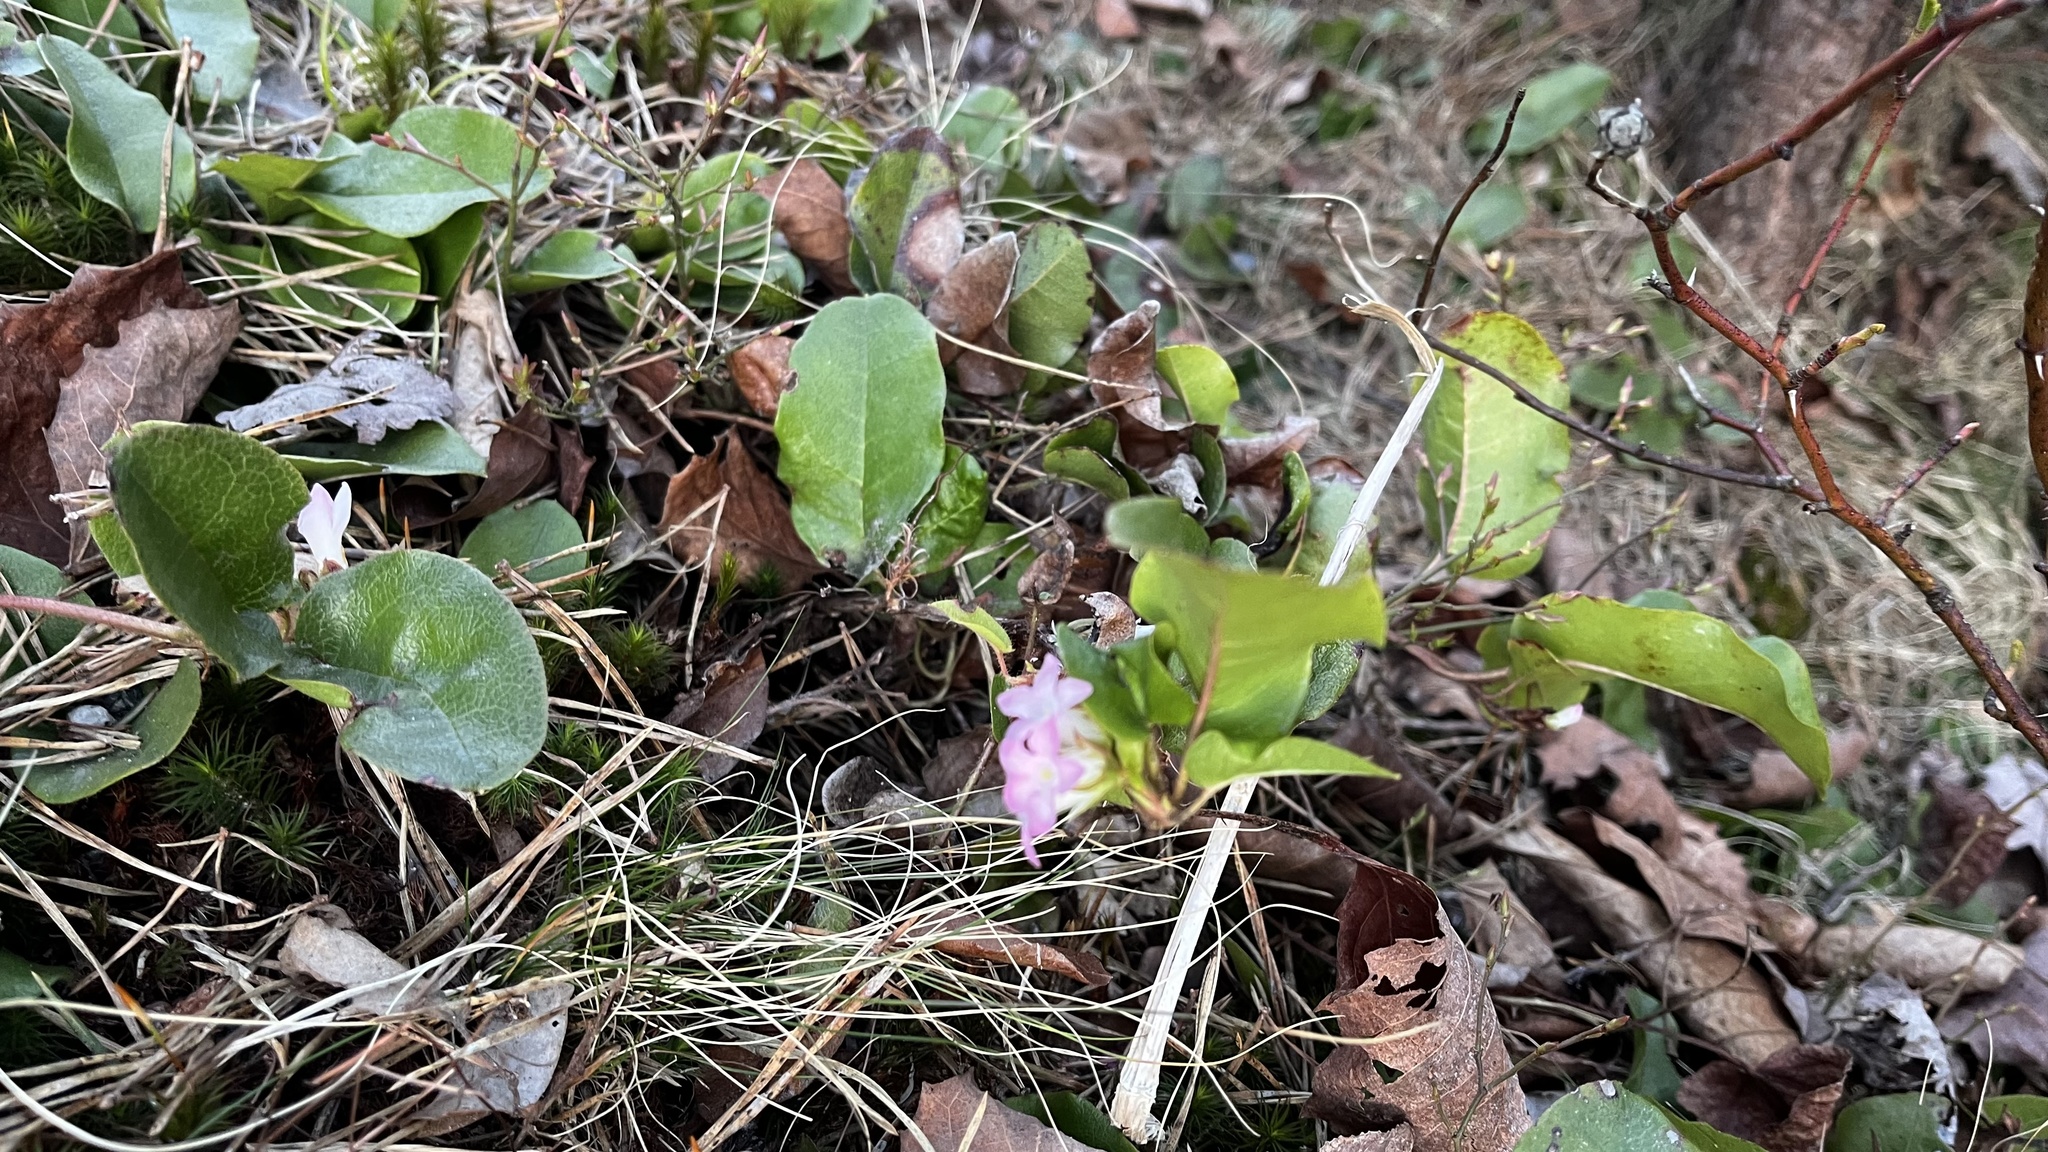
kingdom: Plantae
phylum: Tracheophyta
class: Magnoliopsida
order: Ericales
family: Ericaceae
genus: Epigaea
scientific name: Epigaea repens
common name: Gravelroot
